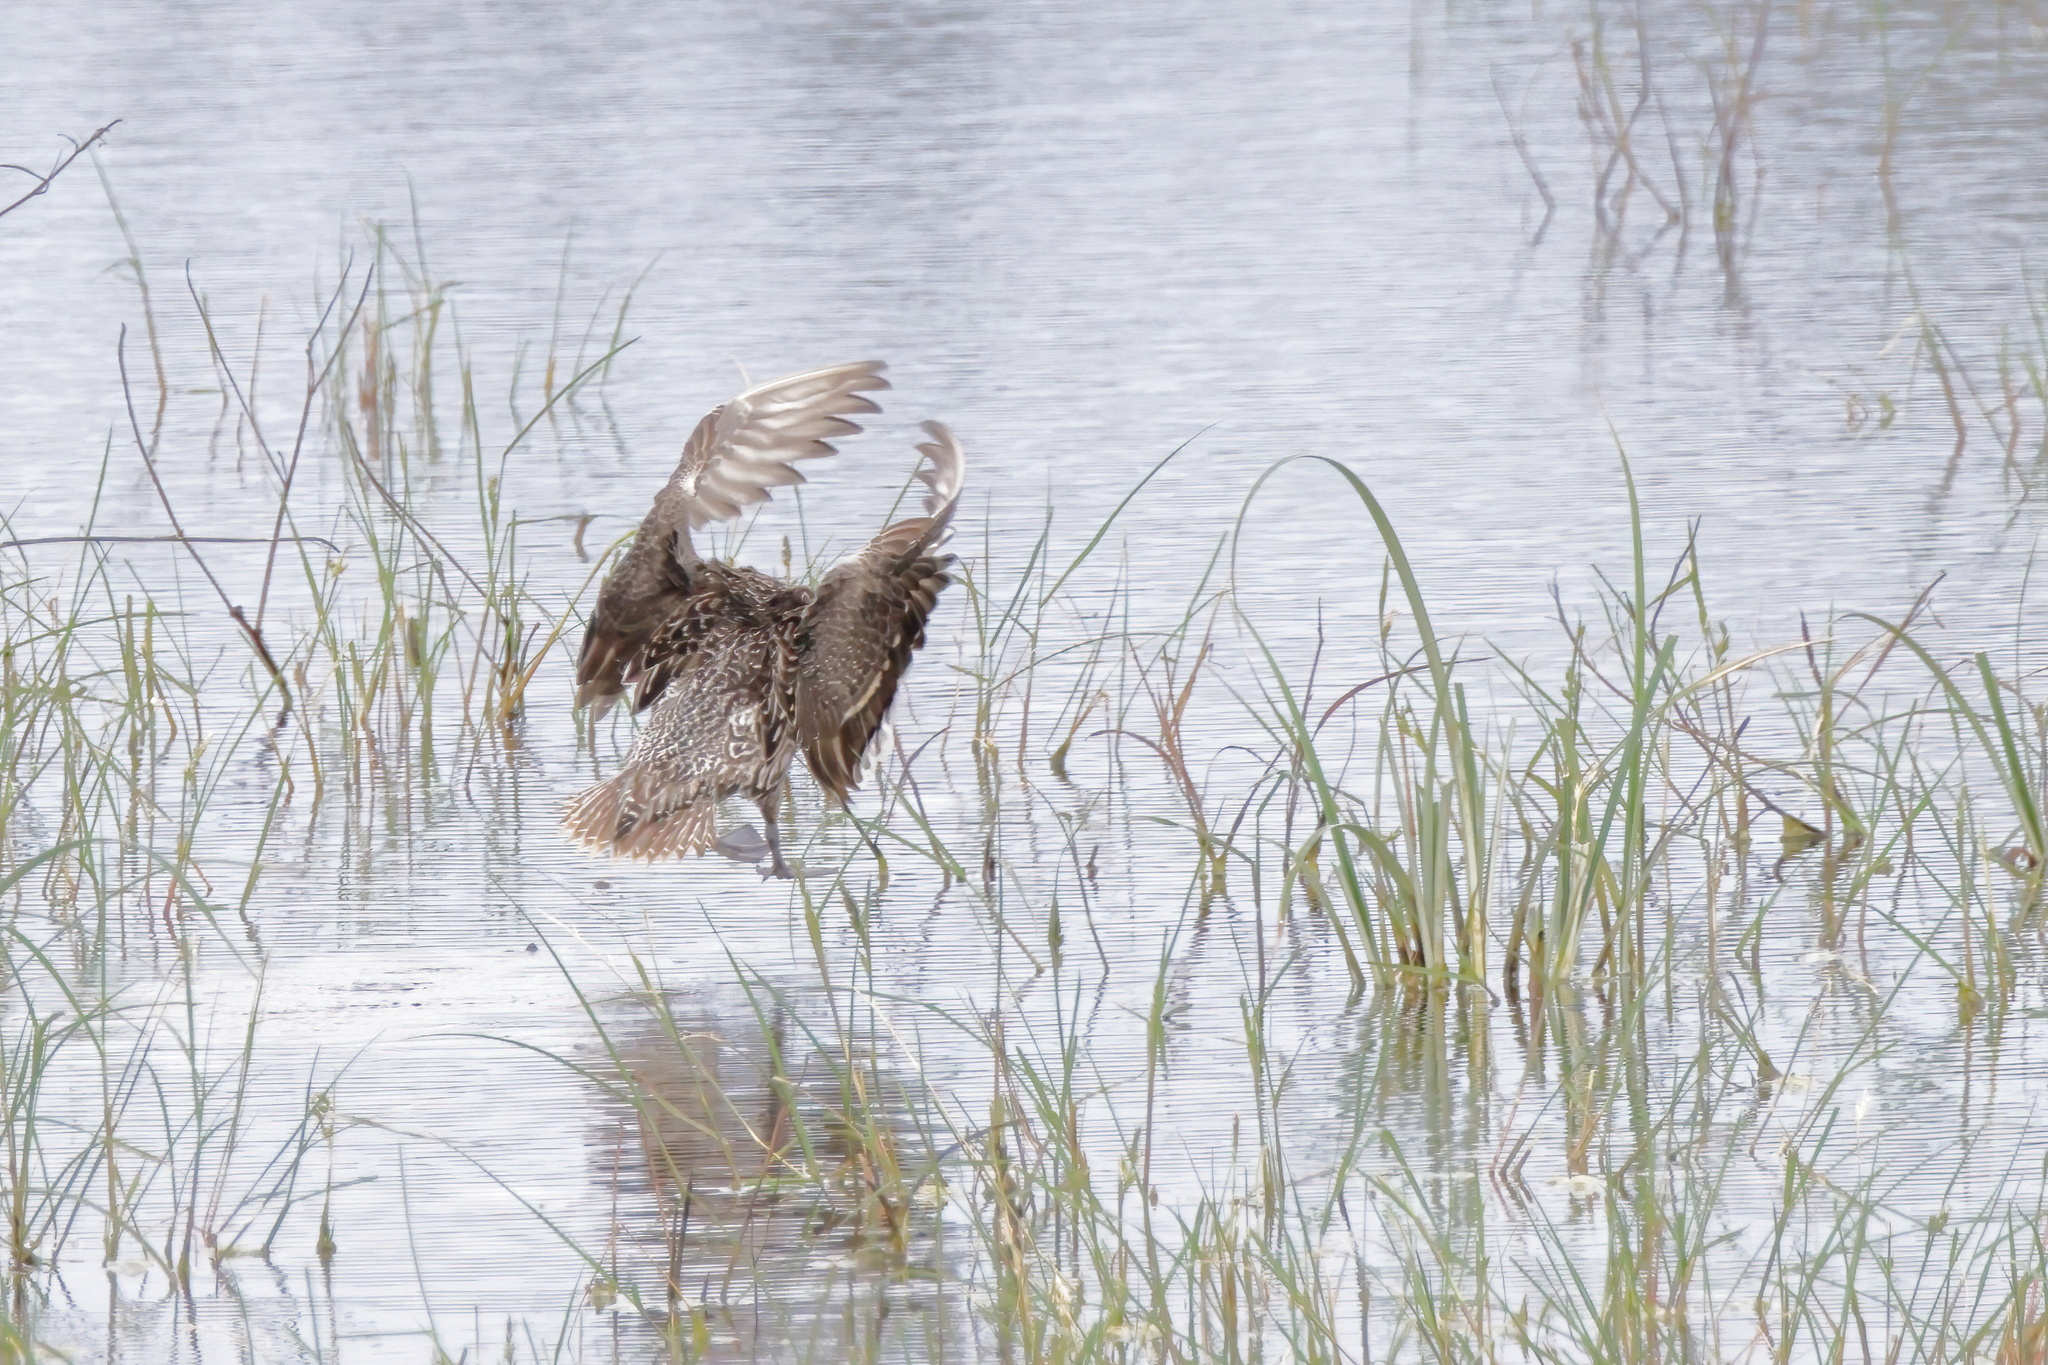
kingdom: Animalia
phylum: Chordata
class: Aves
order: Anseriformes
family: Anatidae
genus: Anas
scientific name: Anas acuta
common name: Northern pintail
